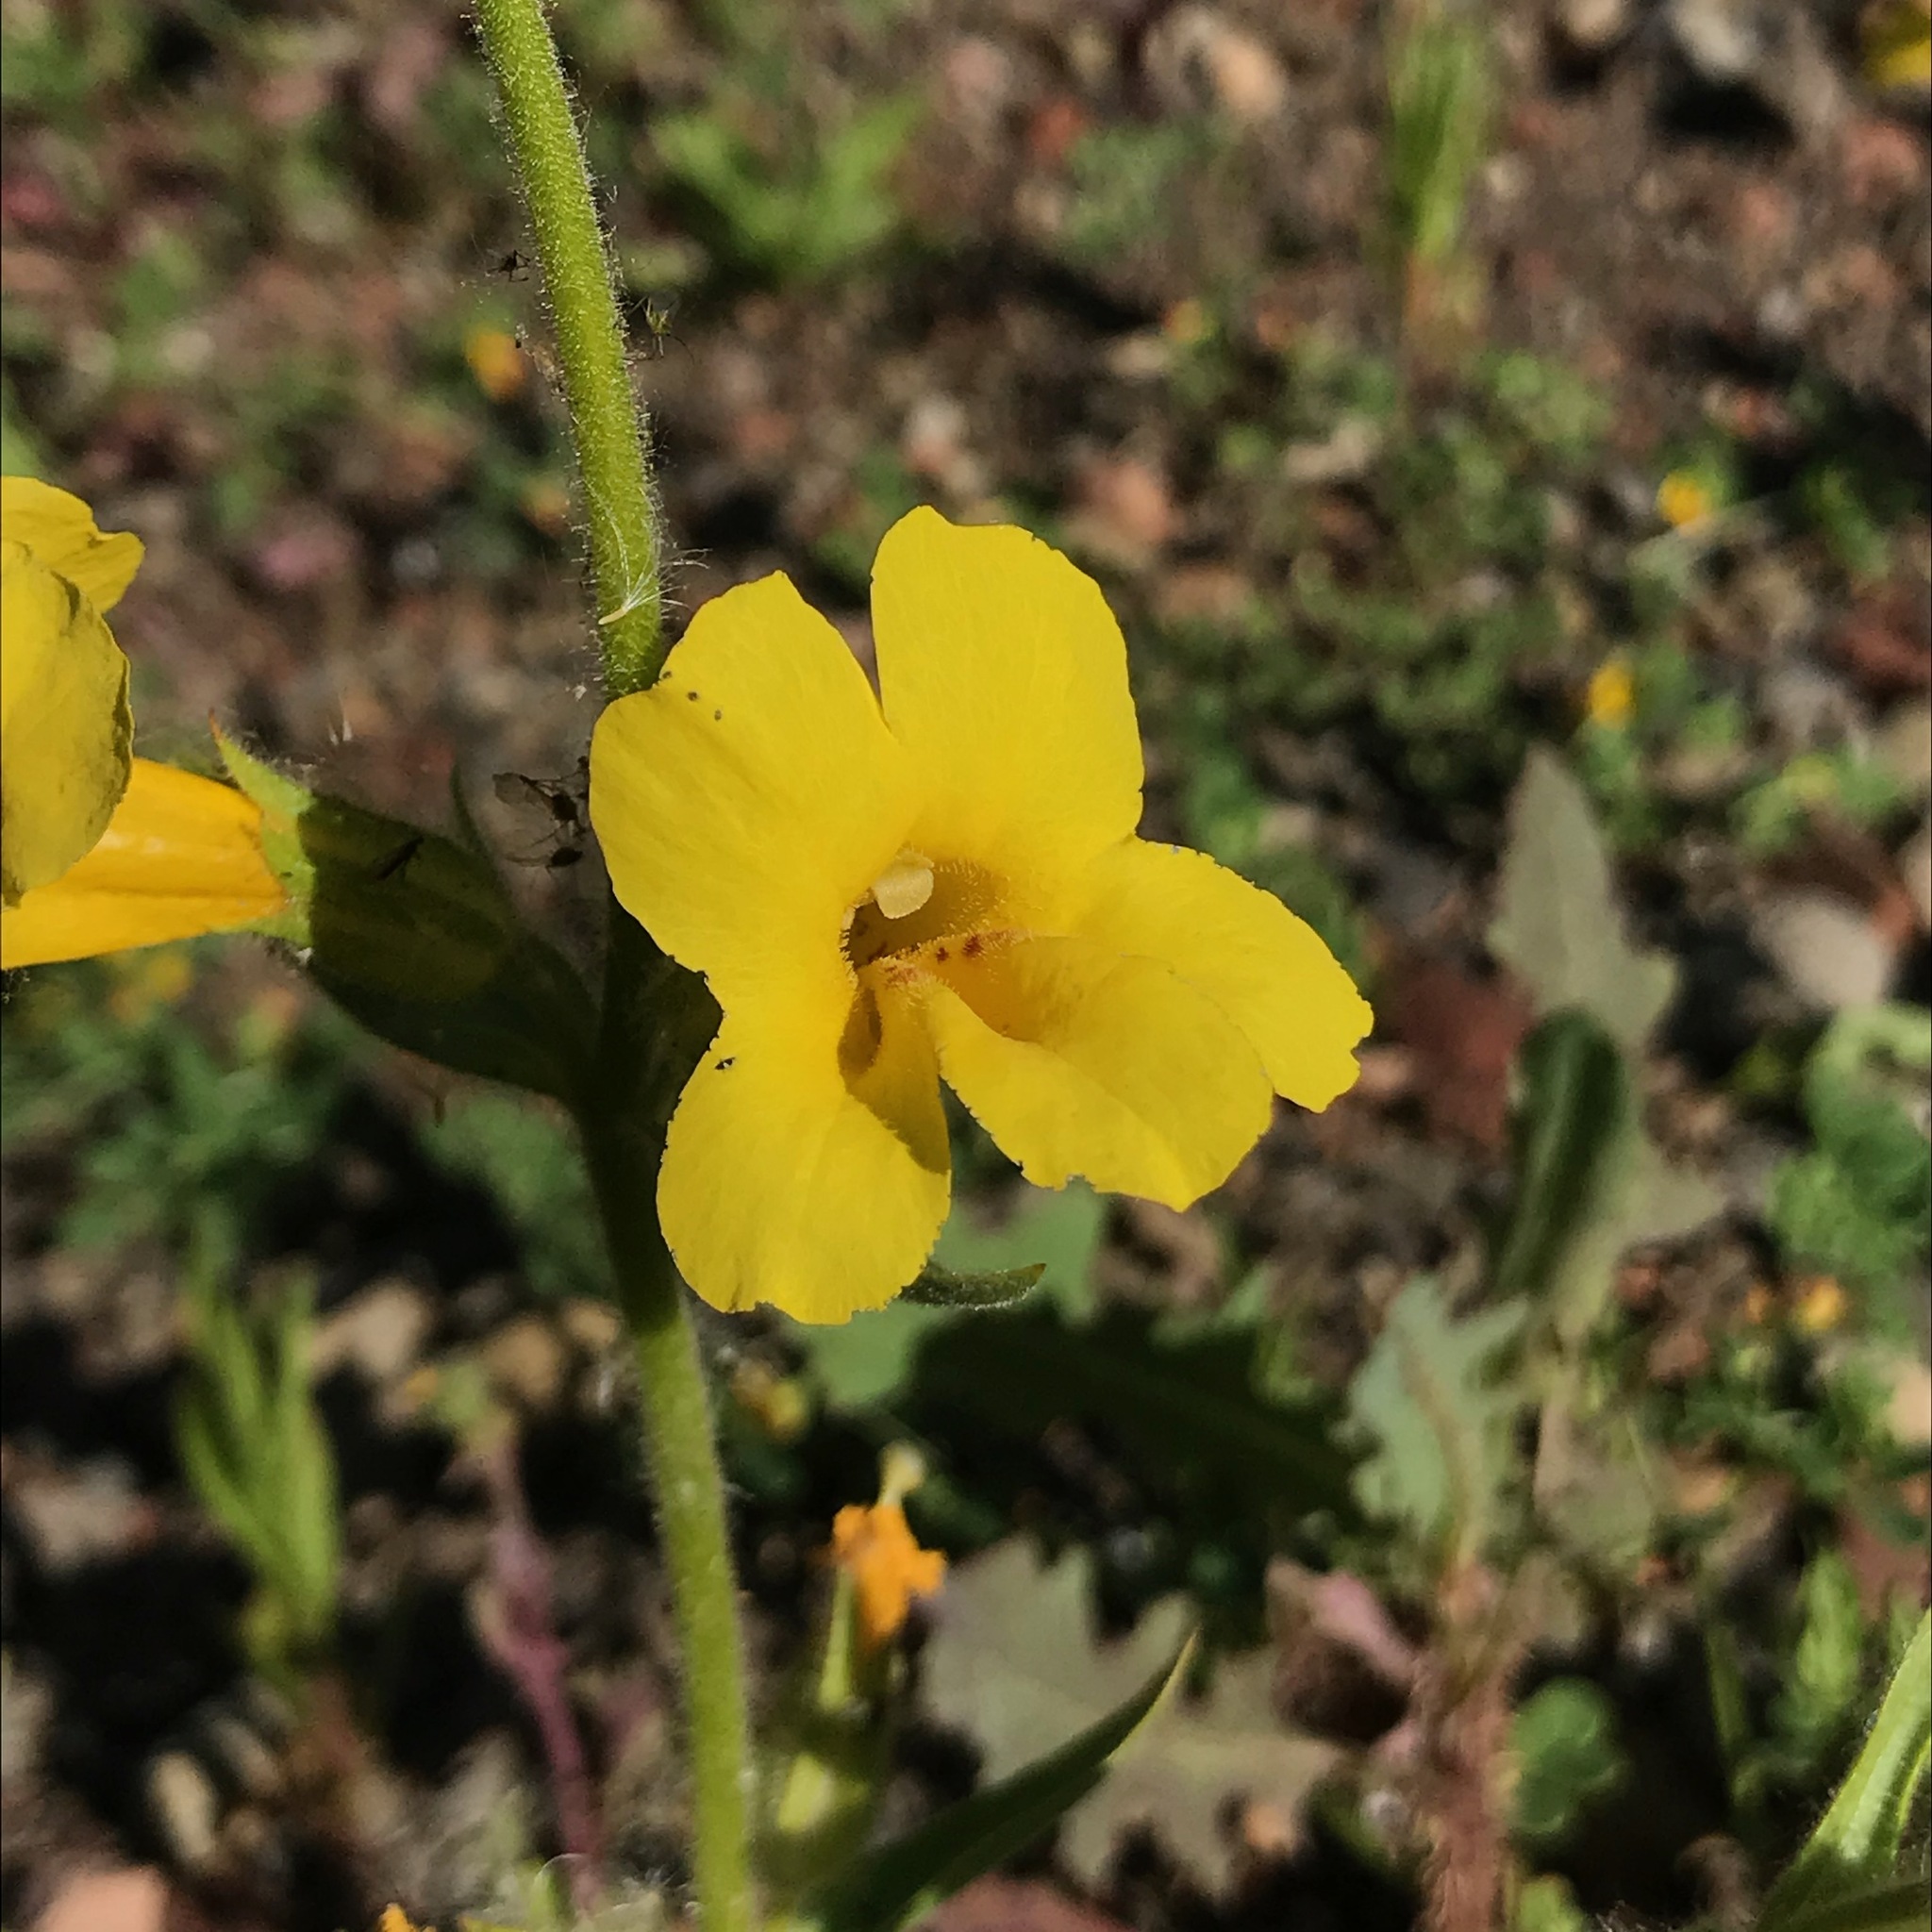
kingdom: Plantae
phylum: Tracheophyta
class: Magnoliopsida
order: Lamiales
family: Phrymaceae
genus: Diplacus
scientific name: Diplacus brevipes
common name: Wide-throat yellow monkey-flower
